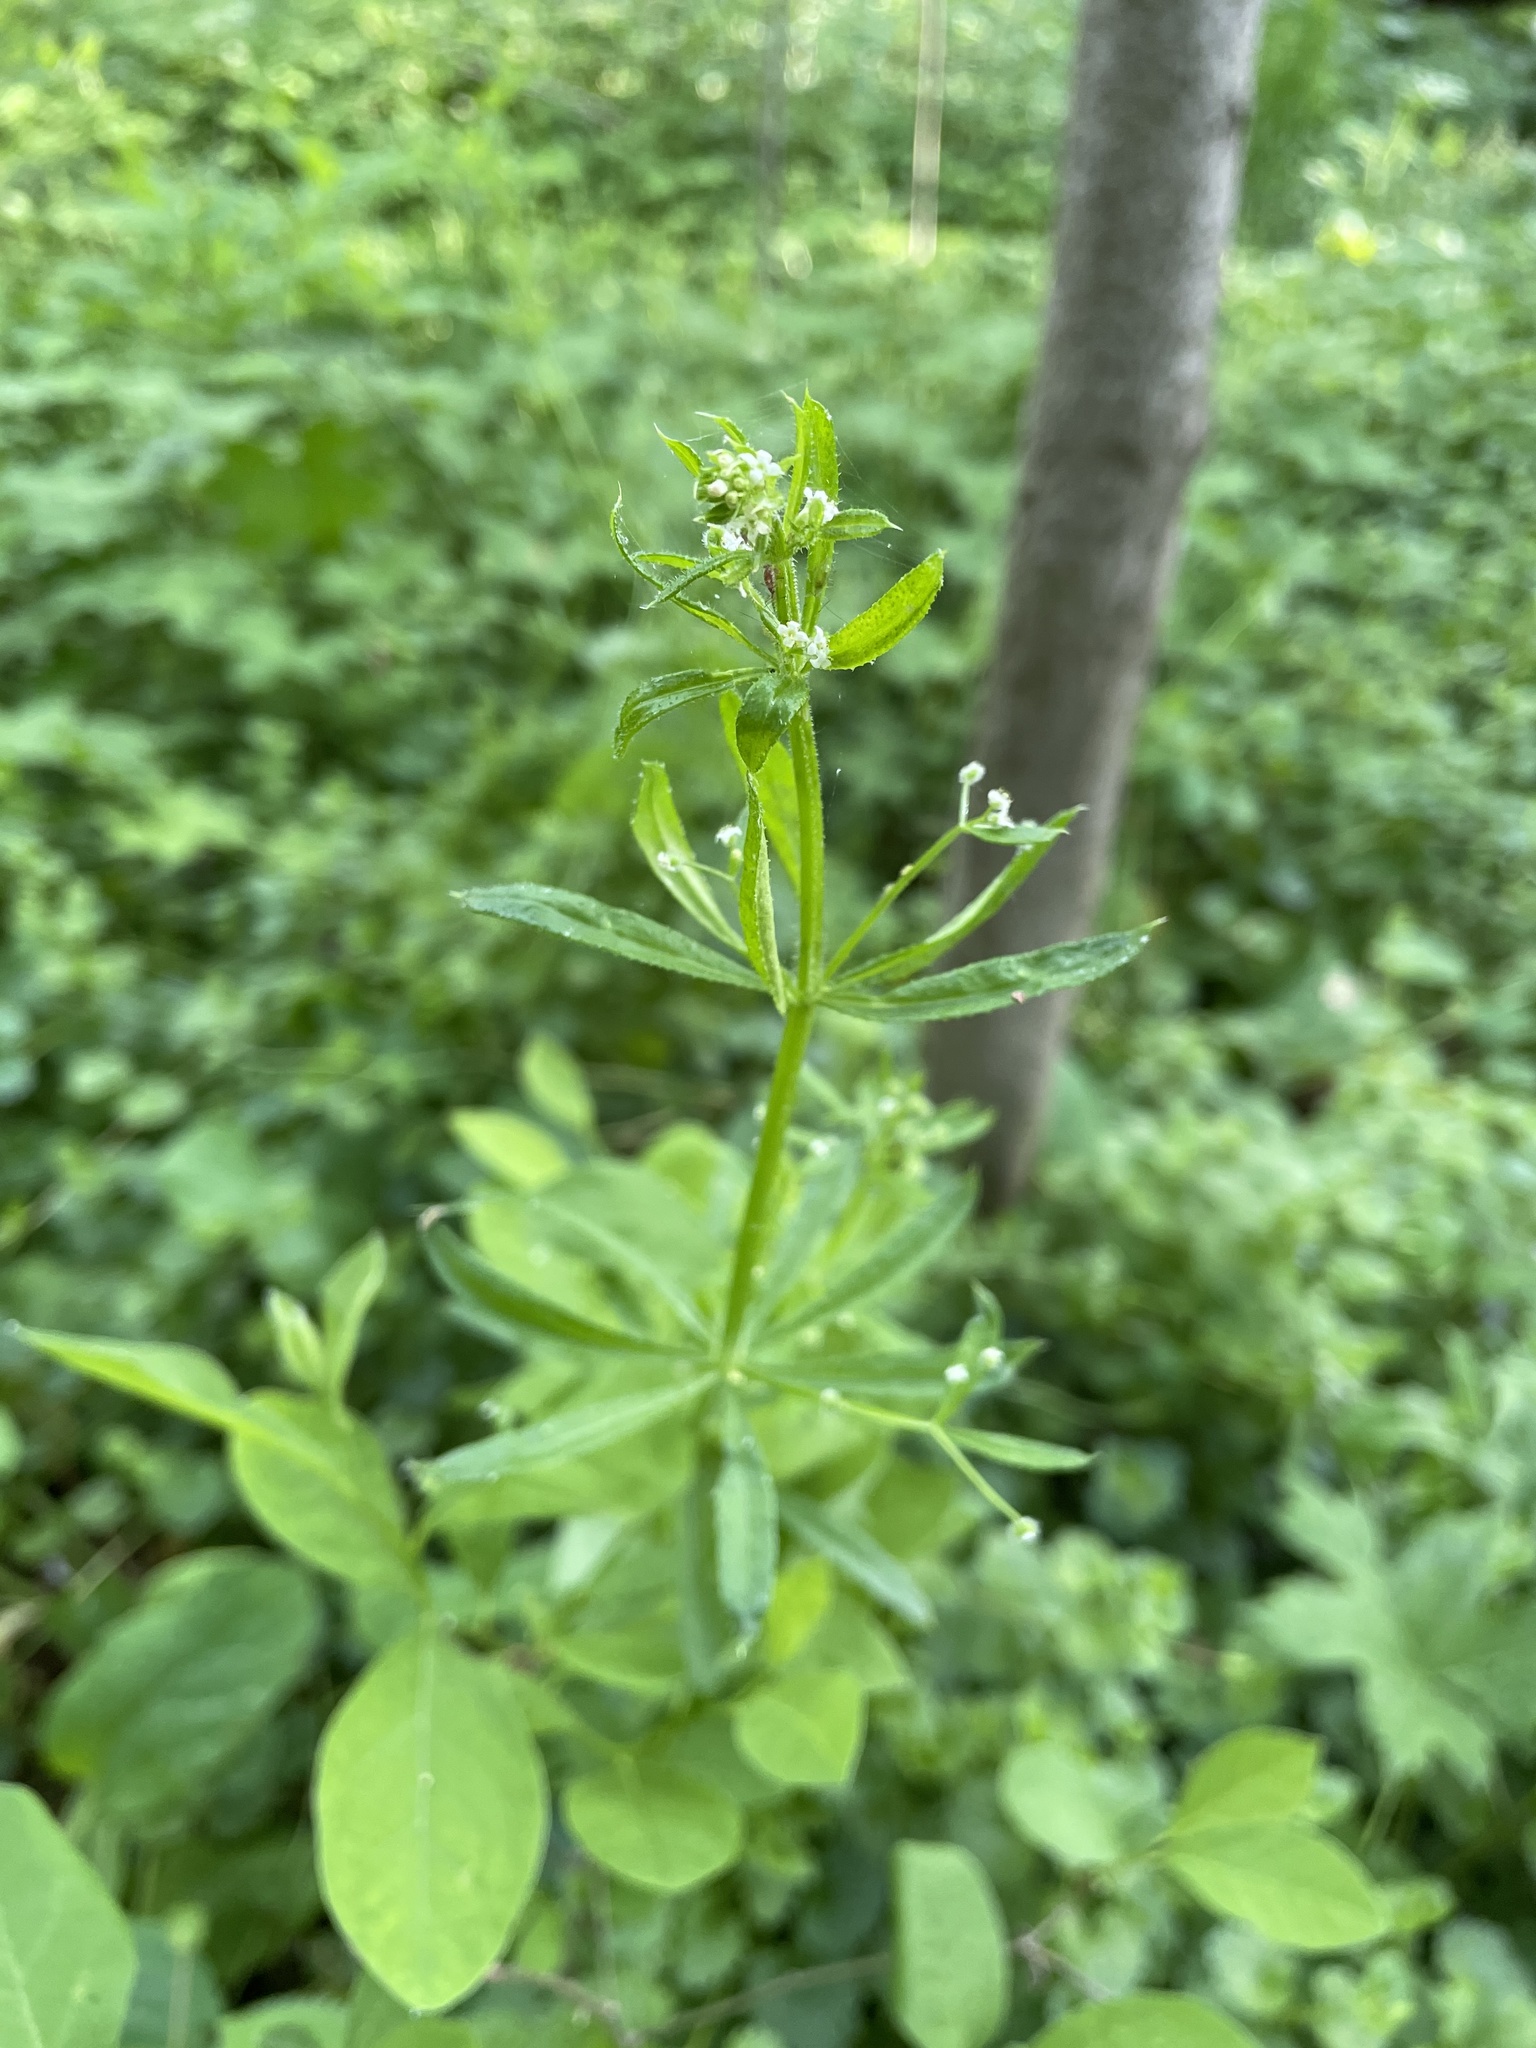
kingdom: Plantae
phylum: Tracheophyta
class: Magnoliopsida
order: Gentianales
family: Rubiaceae
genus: Galium
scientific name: Galium aparine
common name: Cleavers
